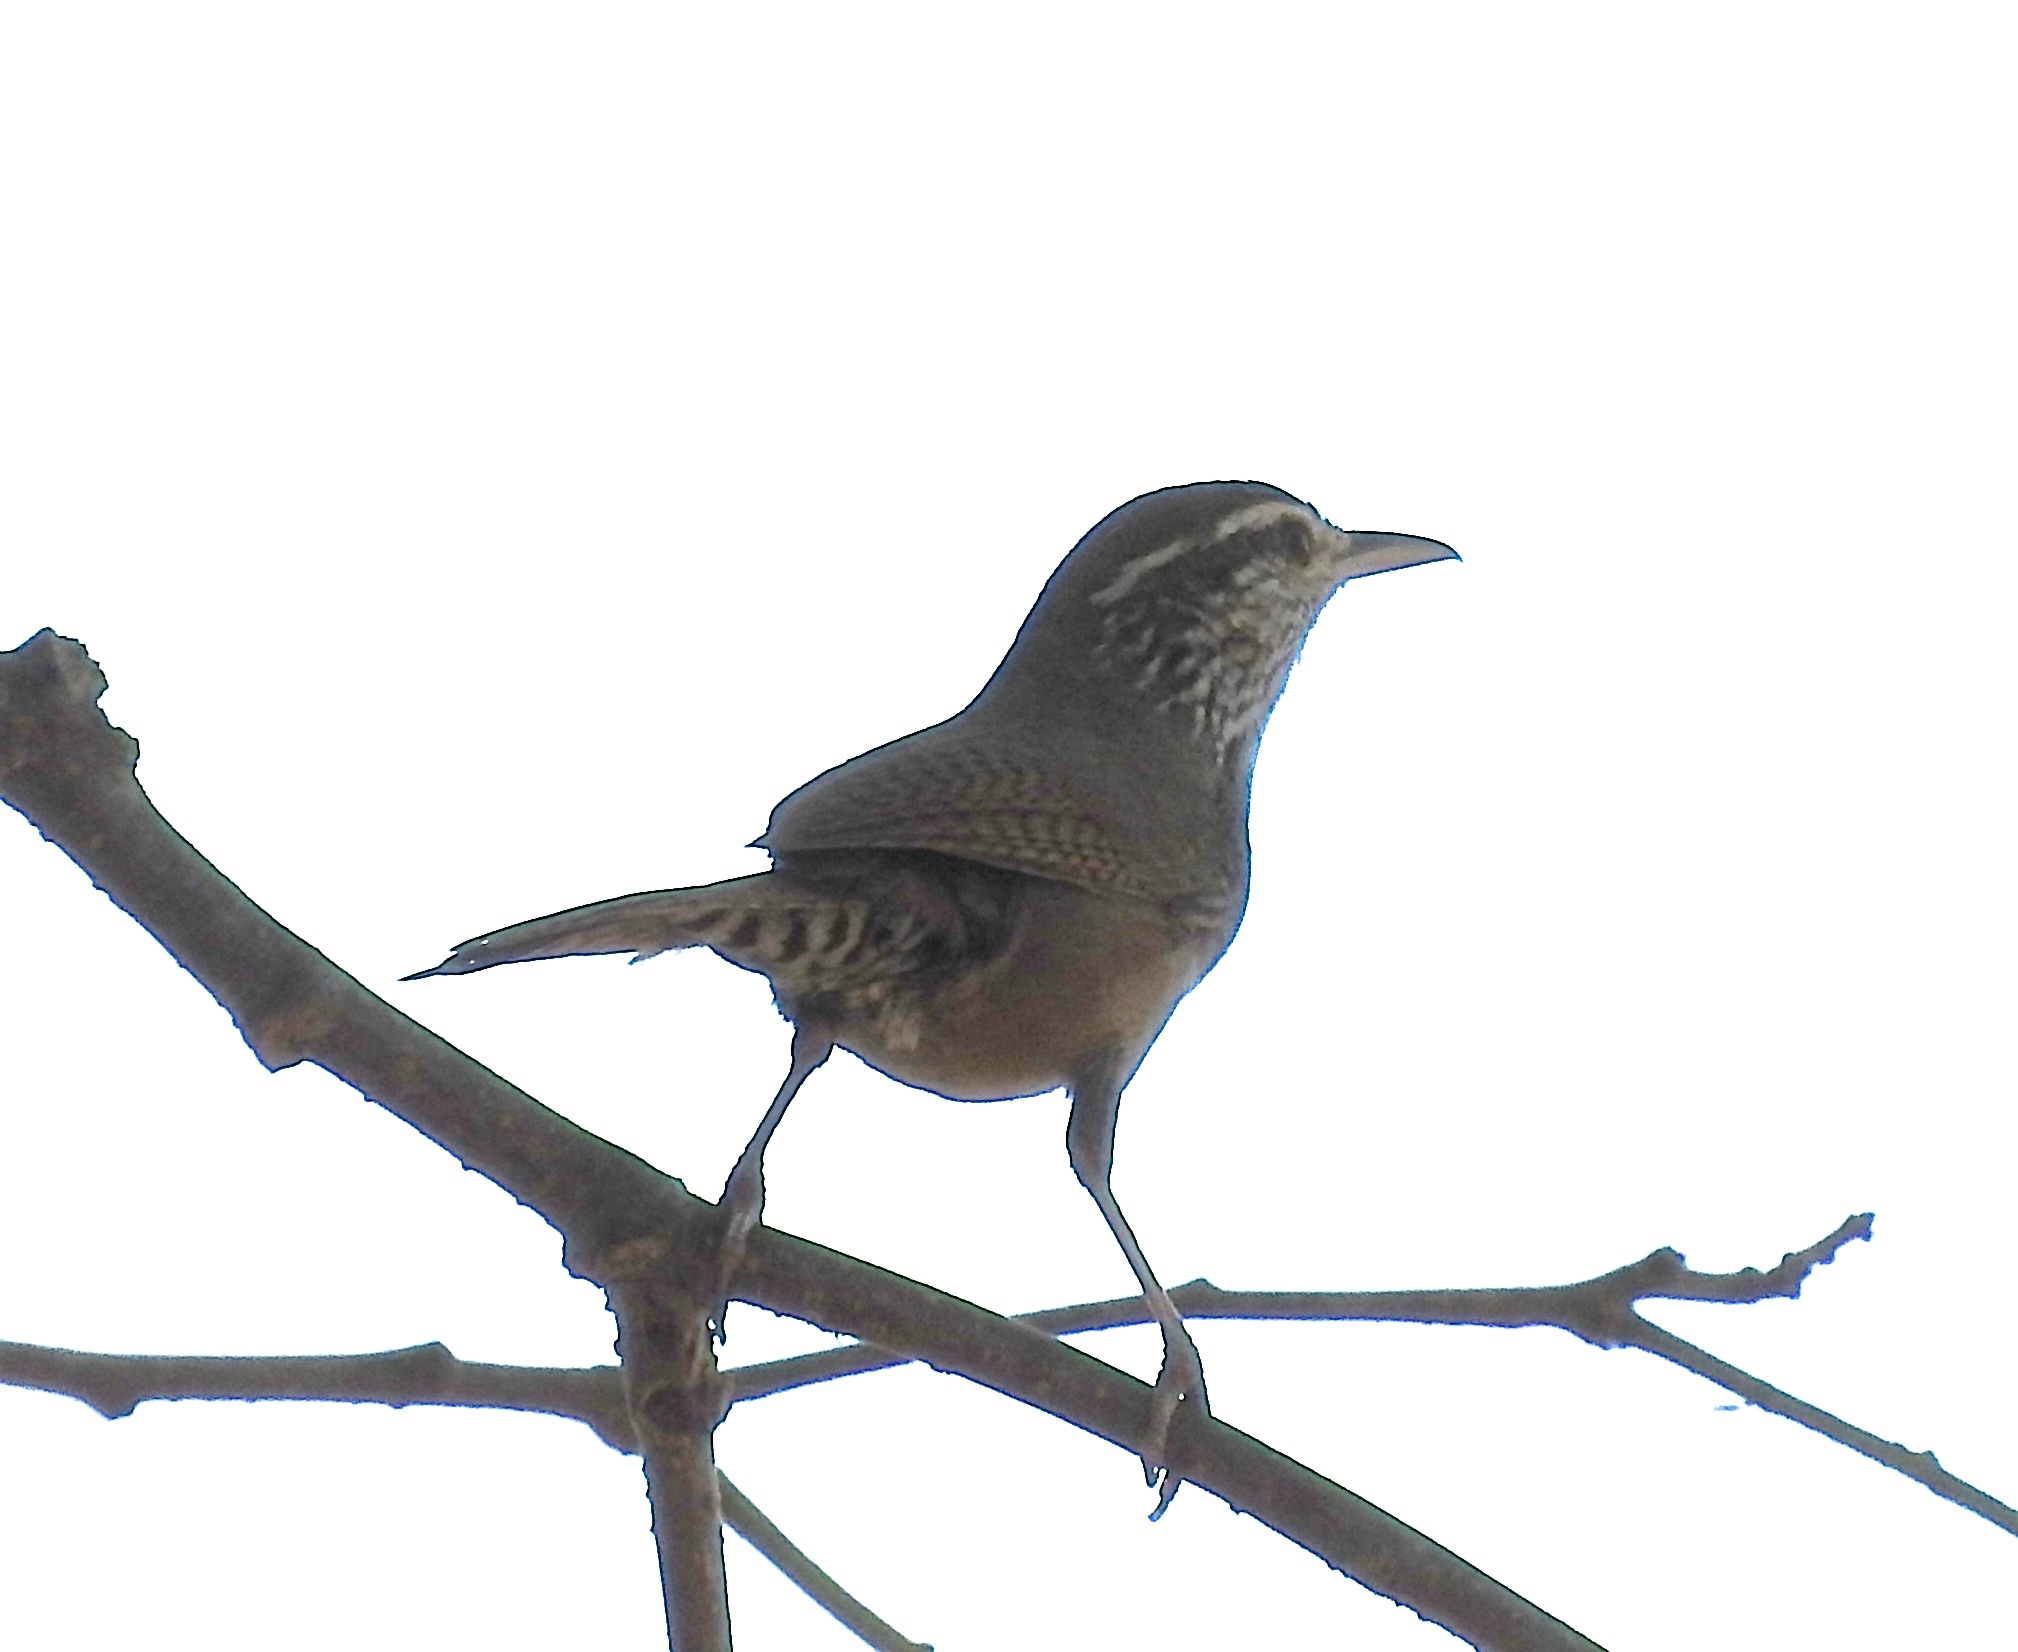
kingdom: Animalia
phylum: Chordata
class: Aves
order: Passeriformes
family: Troglodytidae
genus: Thryophilus
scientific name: Thryophilus sinaloa
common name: Sinaloa wren
